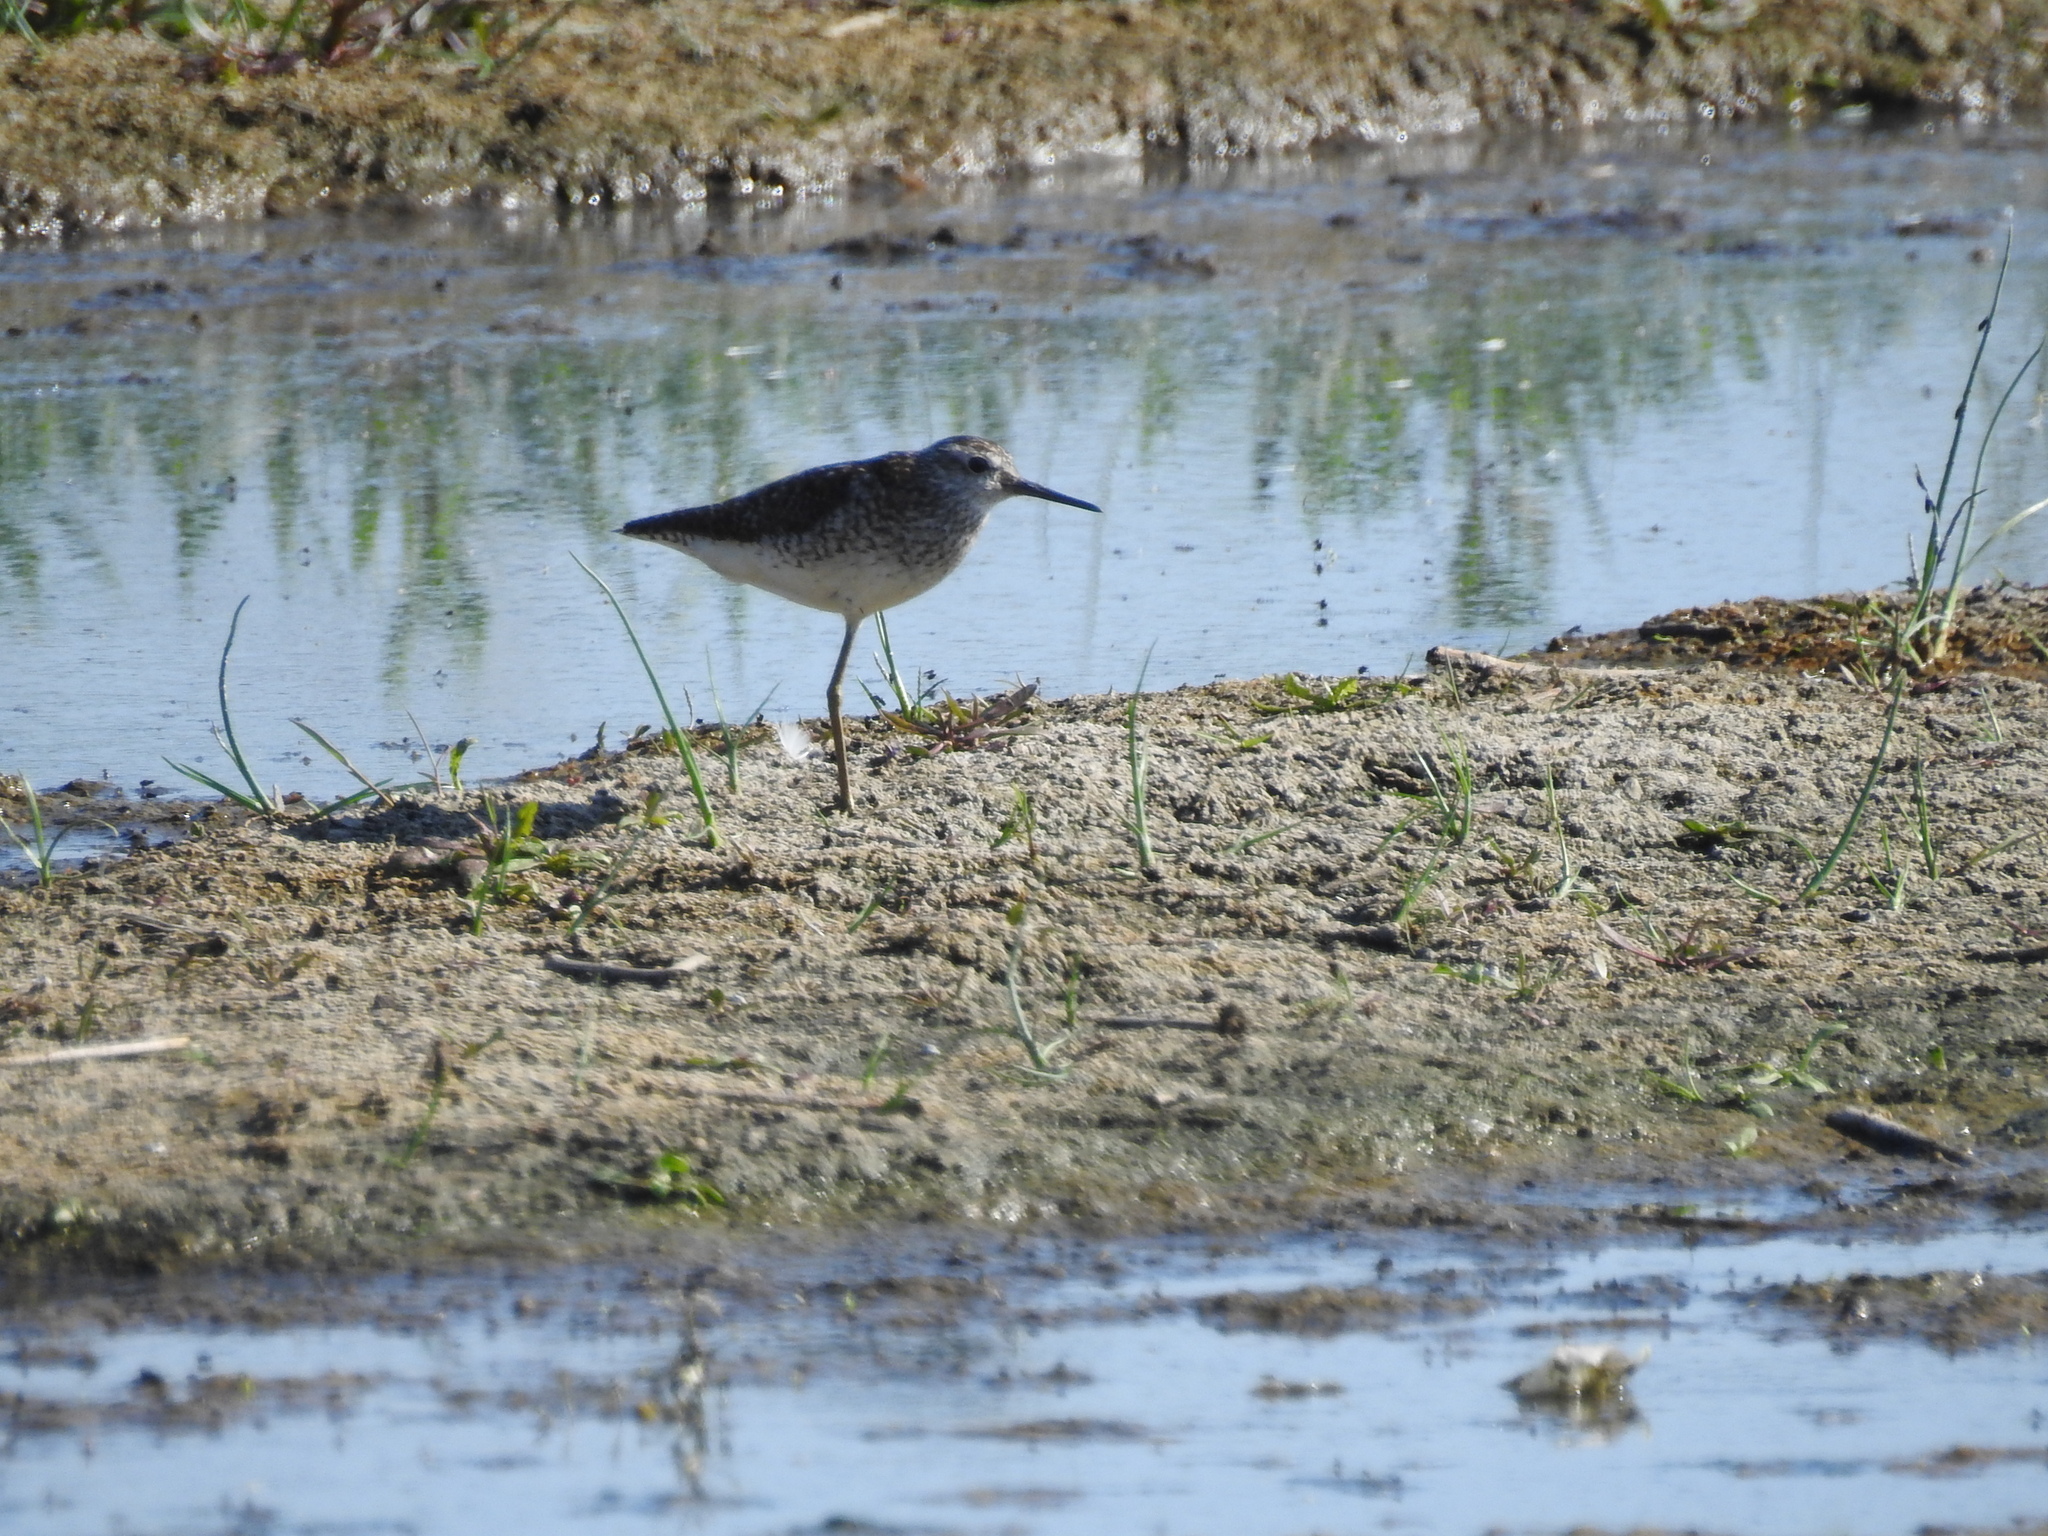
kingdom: Animalia
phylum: Chordata
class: Aves
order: Charadriiformes
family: Scolopacidae
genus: Tringa
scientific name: Tringa glareola
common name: Wood sandpiper
